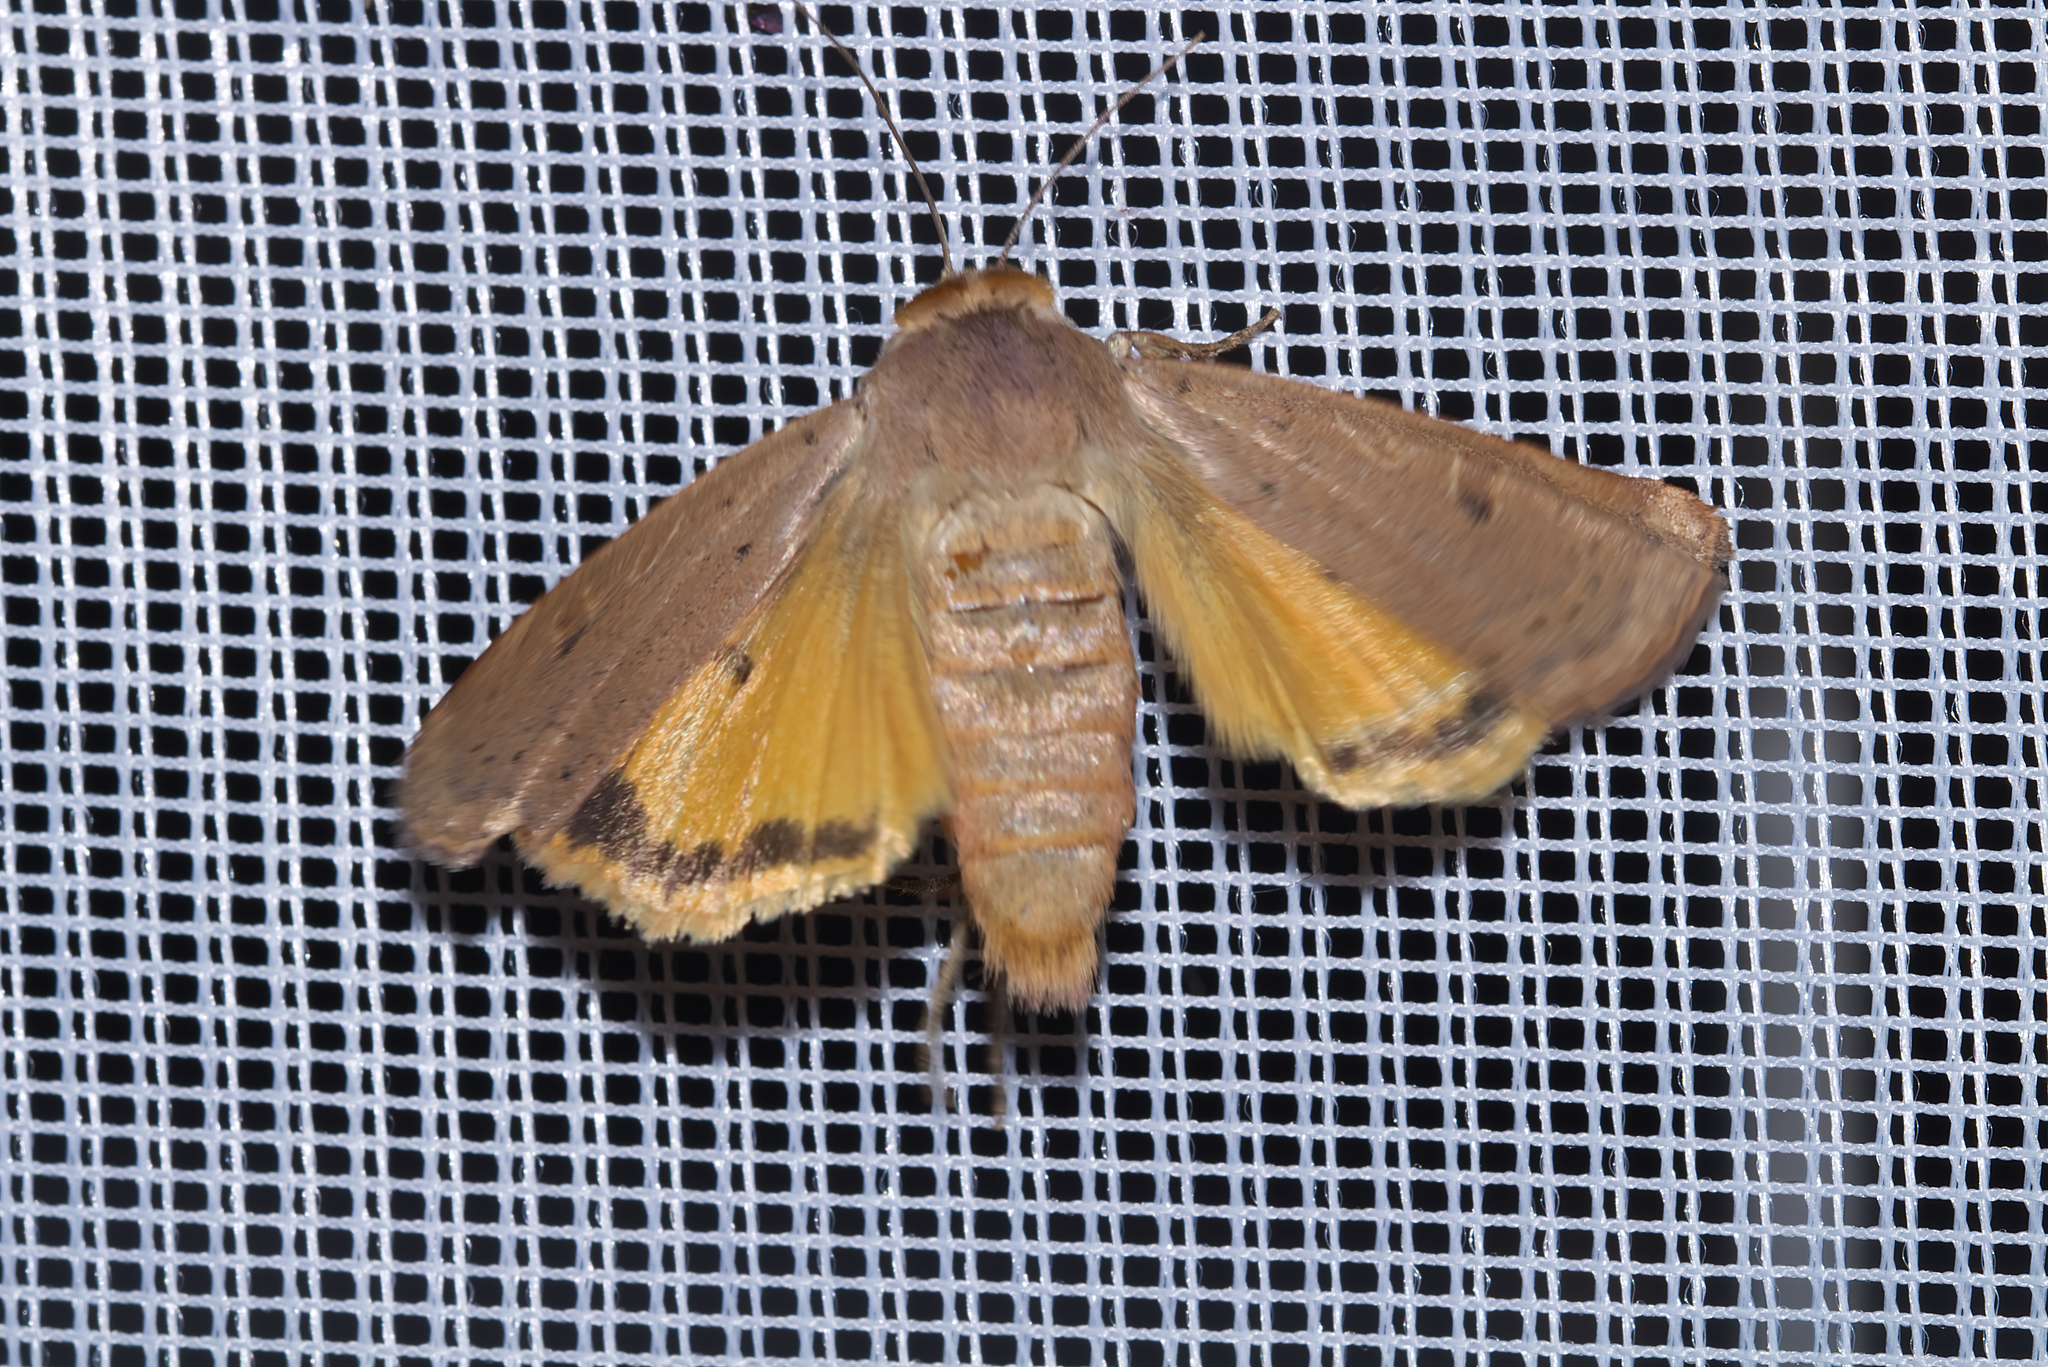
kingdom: Animalia
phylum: Arthropoda
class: Insecta
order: Lepidoptera
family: Noctuidae
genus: Noctua
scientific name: Noctua comes
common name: Lesser yellow underwing
